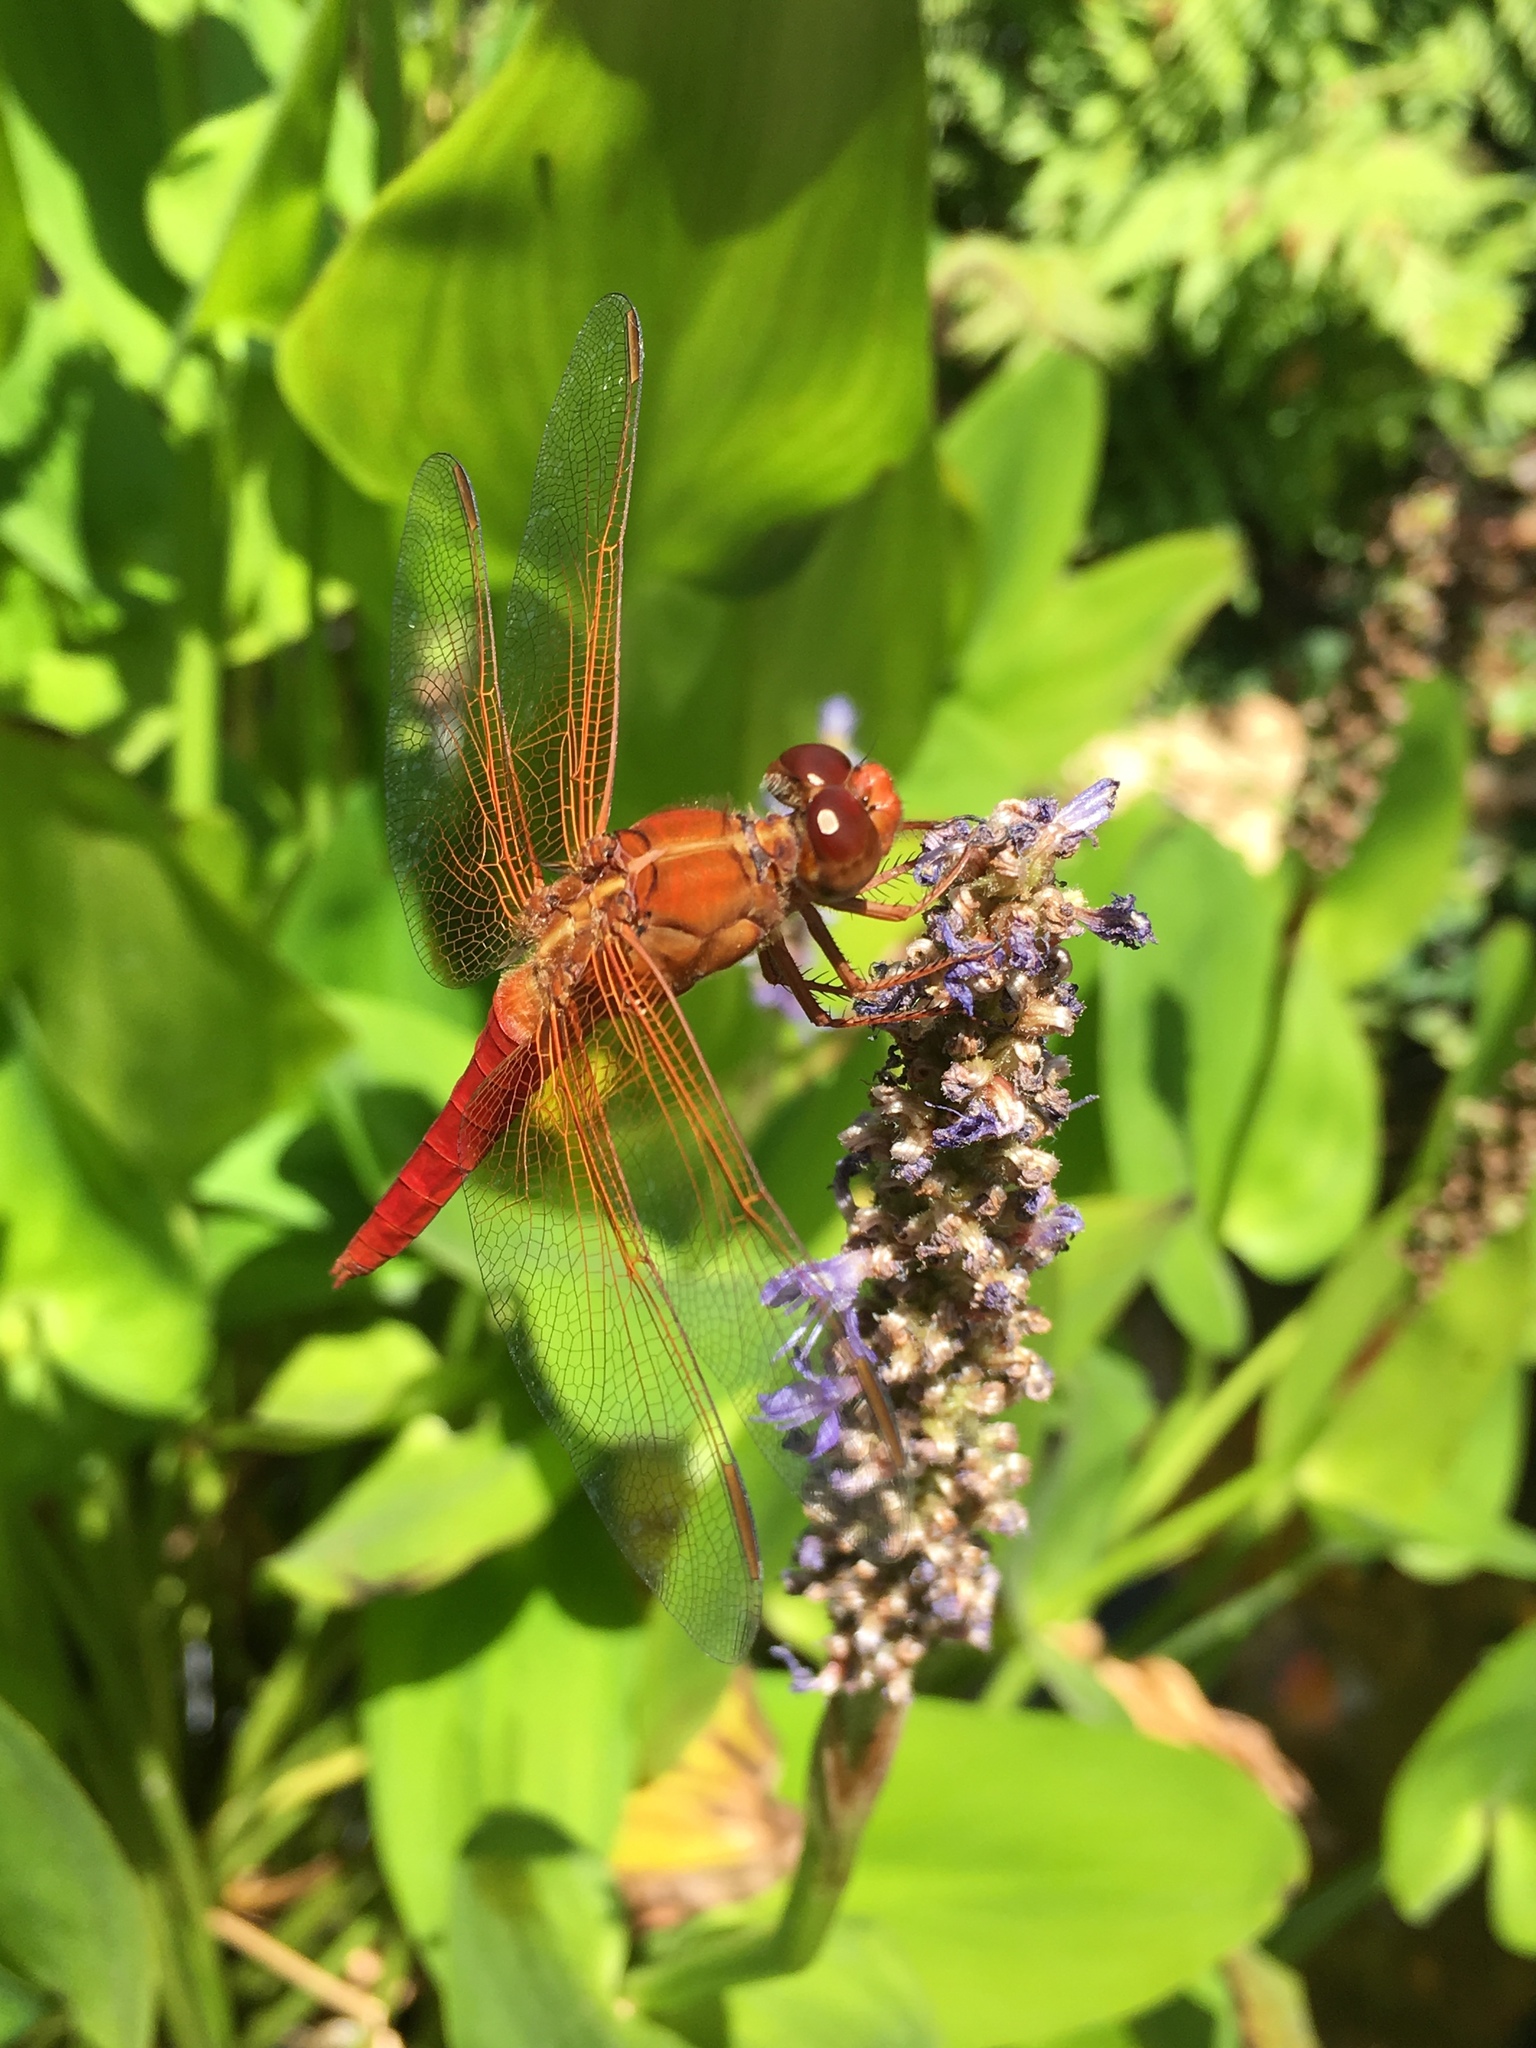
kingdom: Animalia
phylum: Arthropoda
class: Insecta
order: Odonata
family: Libellulidae
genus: Libellula
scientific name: Libellula croceipennis
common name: Neon skimmer
